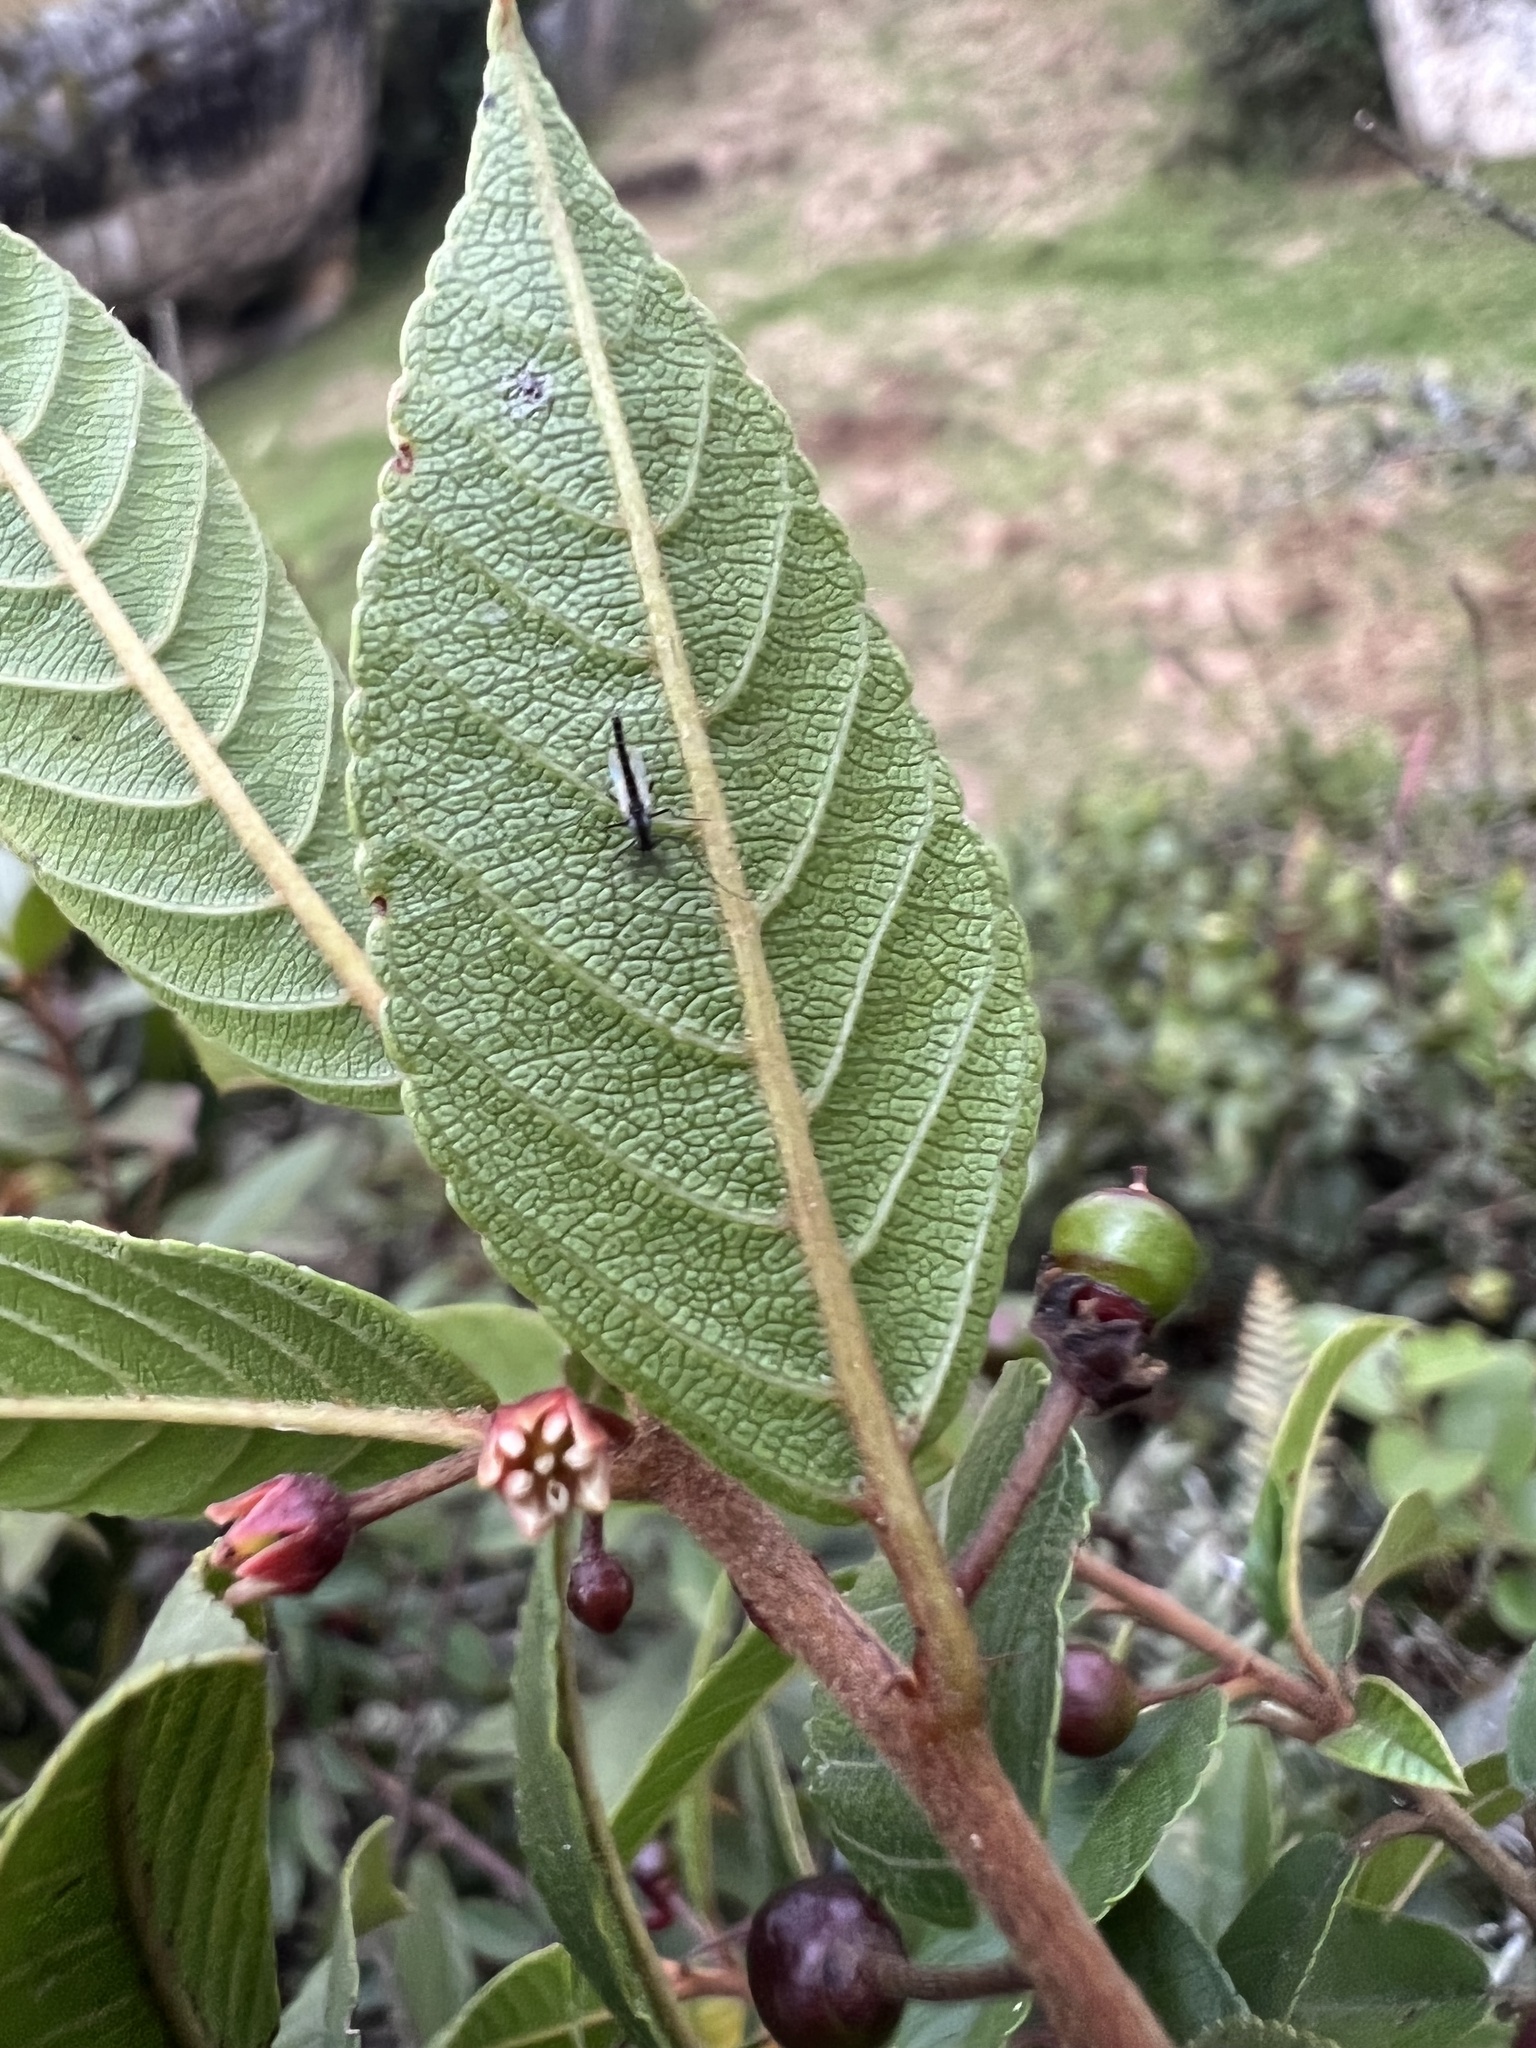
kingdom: Plantae
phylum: Tracheophyta
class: Magnoliopsida
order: Rosales
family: Rhamnaceae
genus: Frangula
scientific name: Frangula goudotiana
